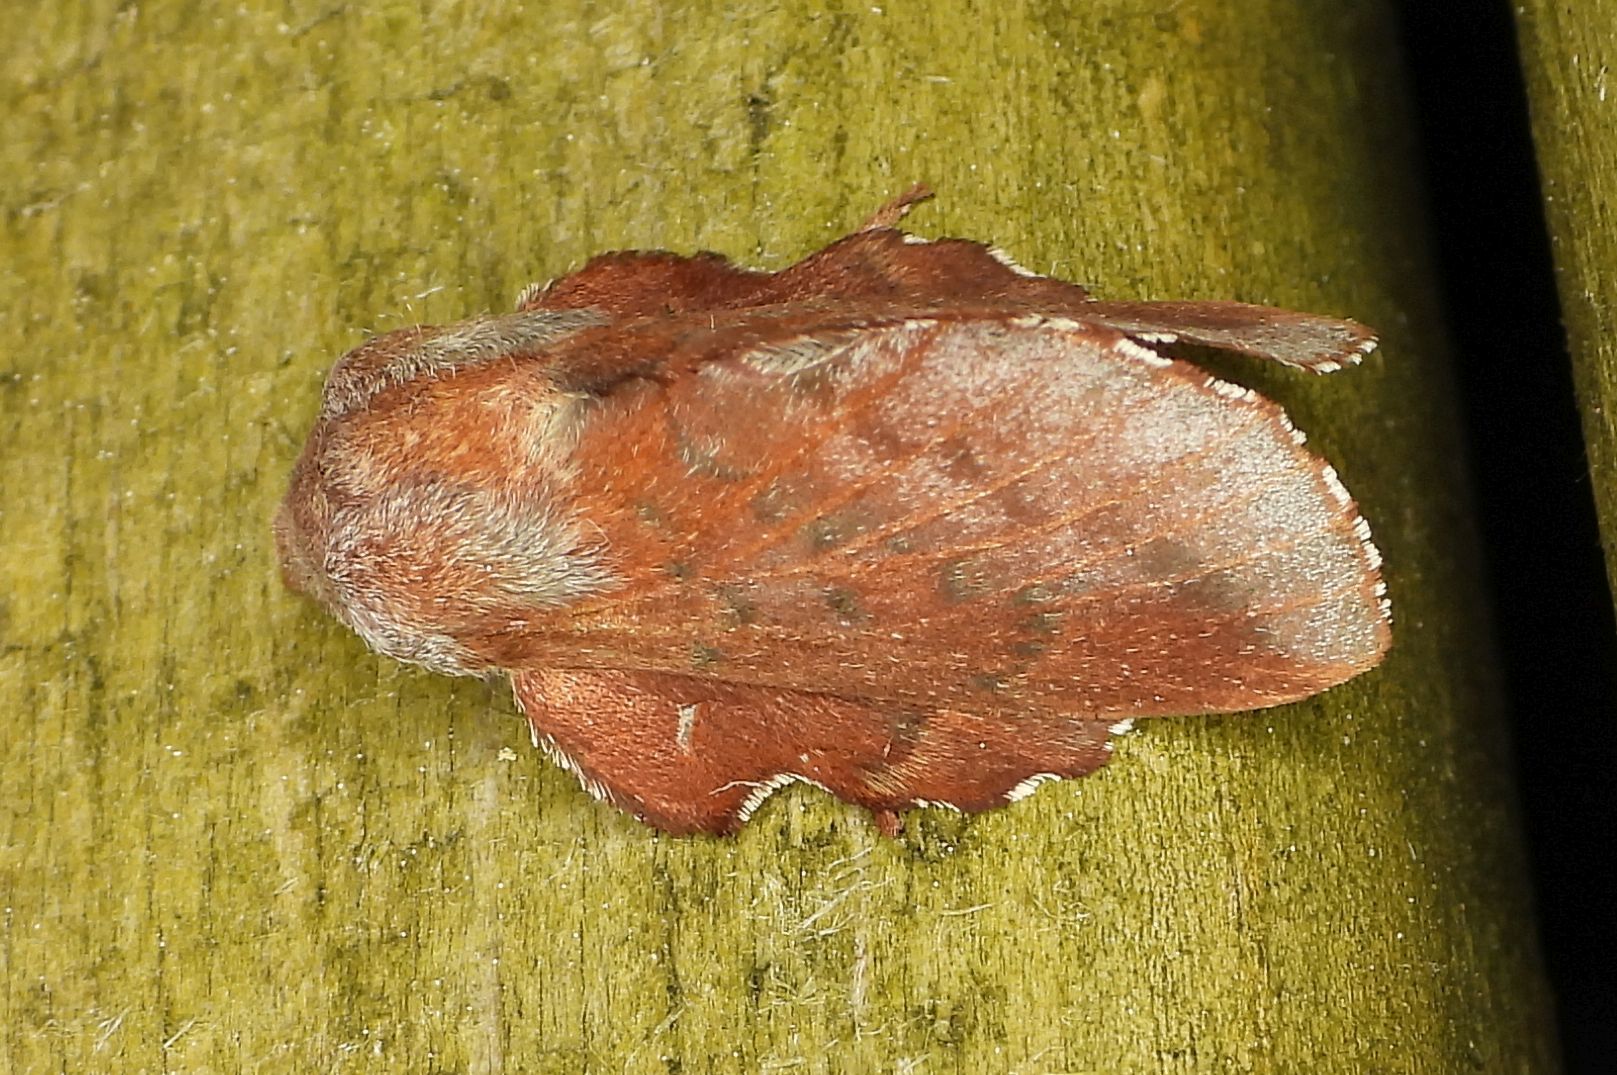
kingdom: Animalia
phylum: Arthropoda
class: Insecta
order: Lepidoptera
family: Lasiocampidae
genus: Phyllodesma
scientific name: Phyllodesma americana
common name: American lappet moth
